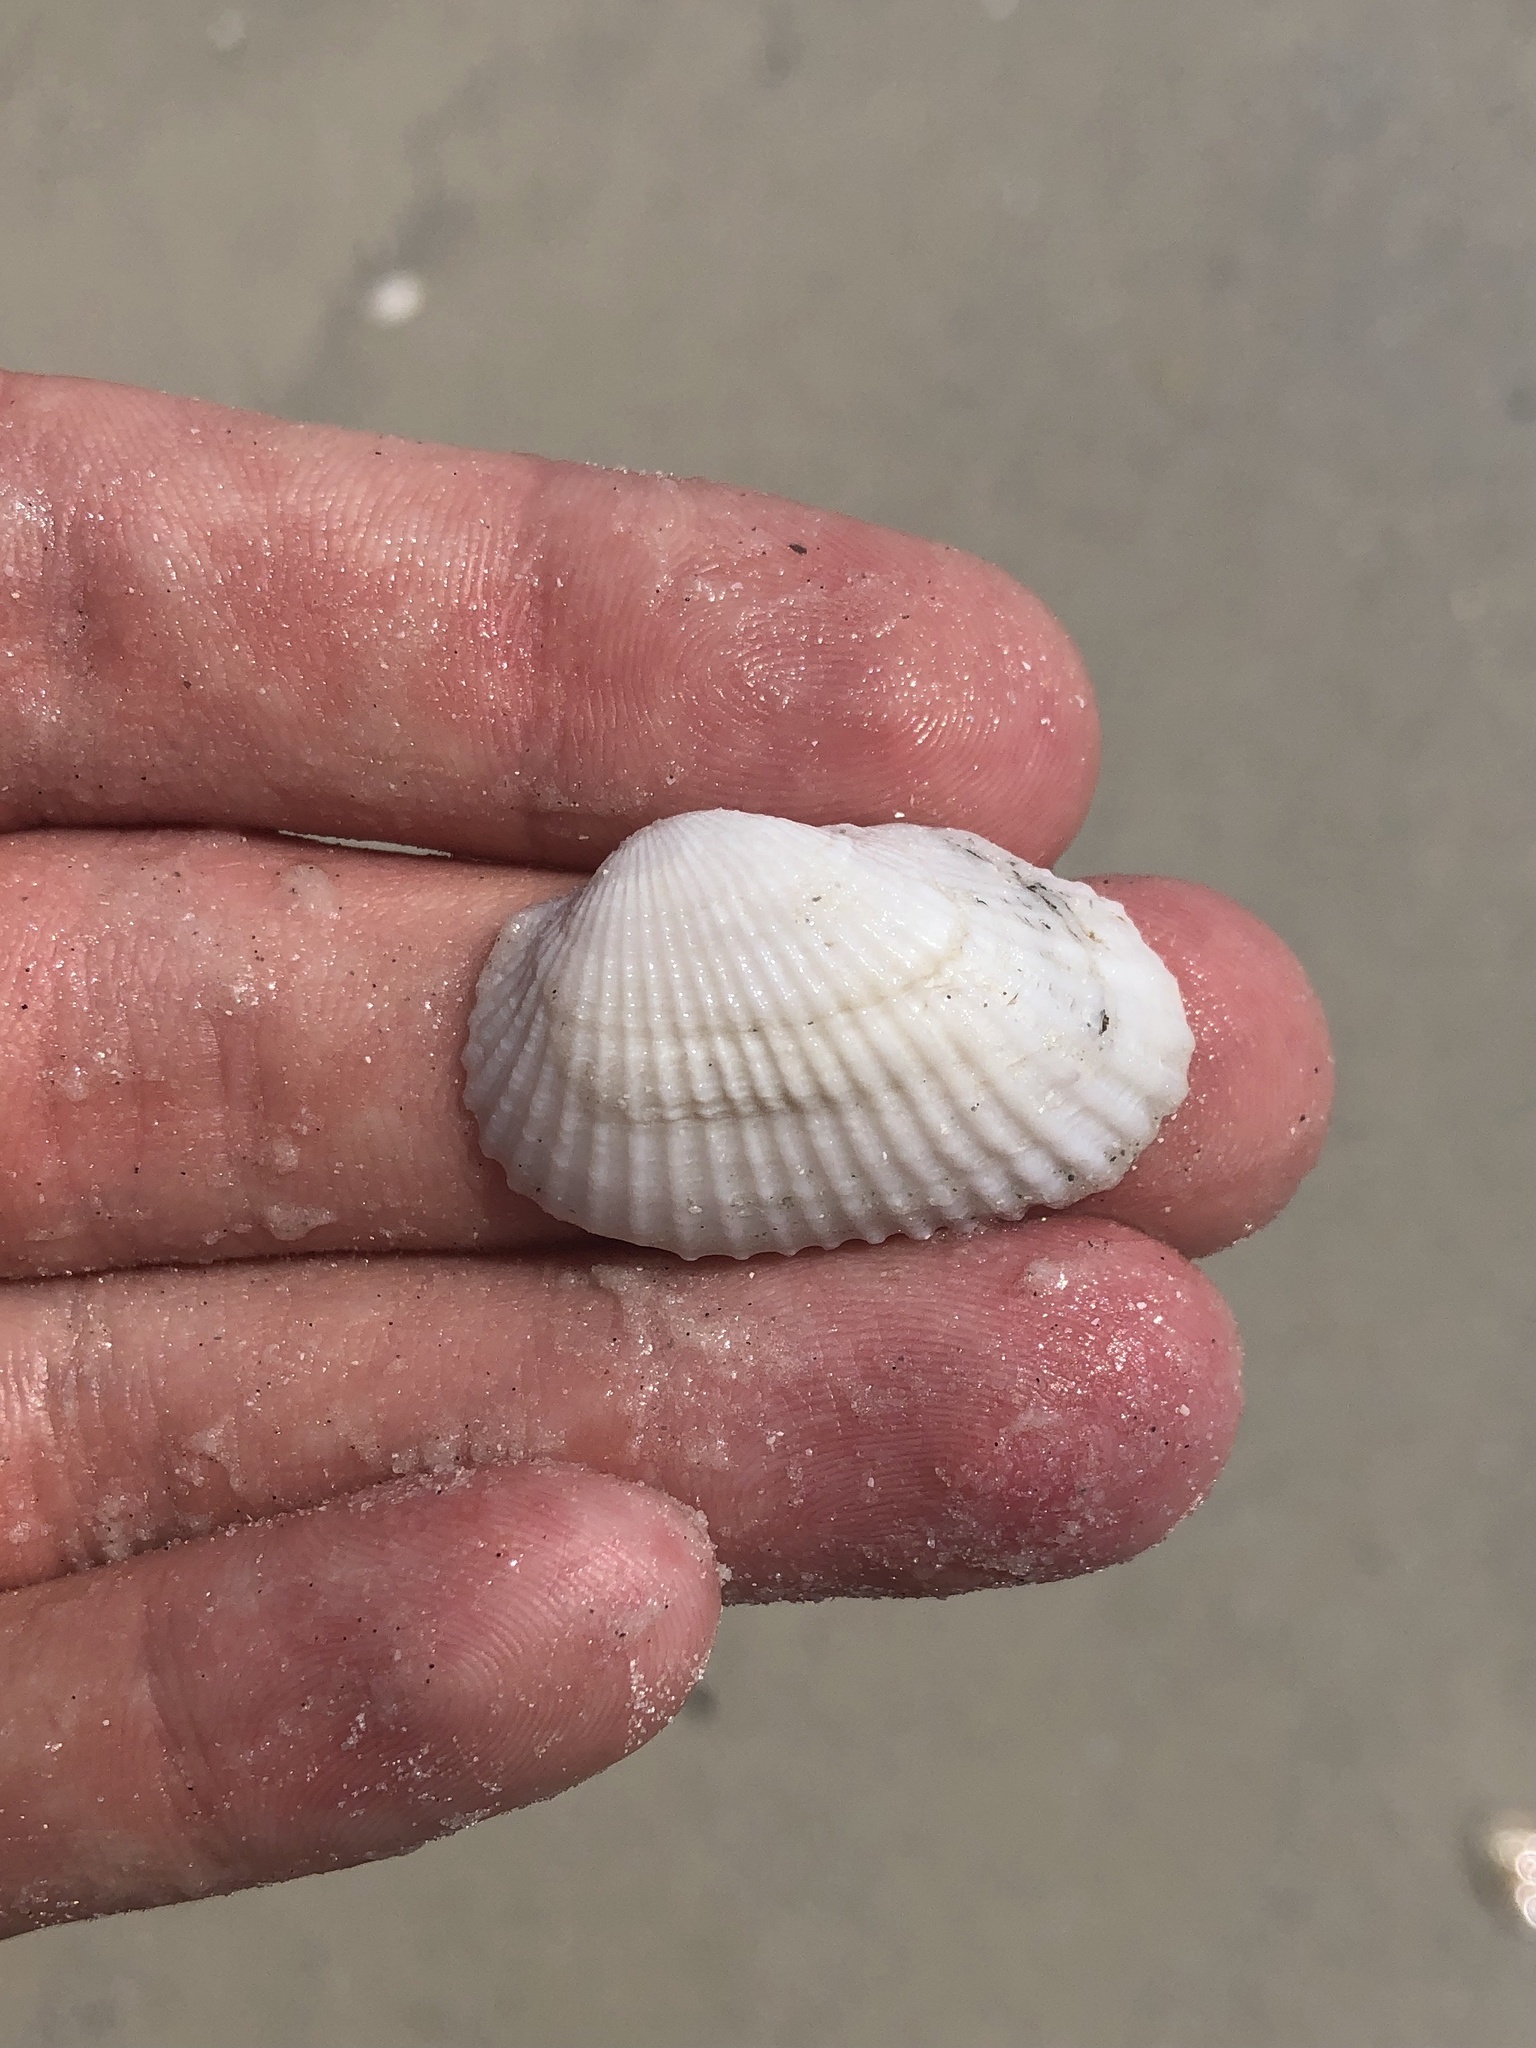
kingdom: Animalia
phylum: Mollusca
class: Bivalvia
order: Arcida
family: Arcidae
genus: Anadara
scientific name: Anadara transversa
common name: Transverse ark
